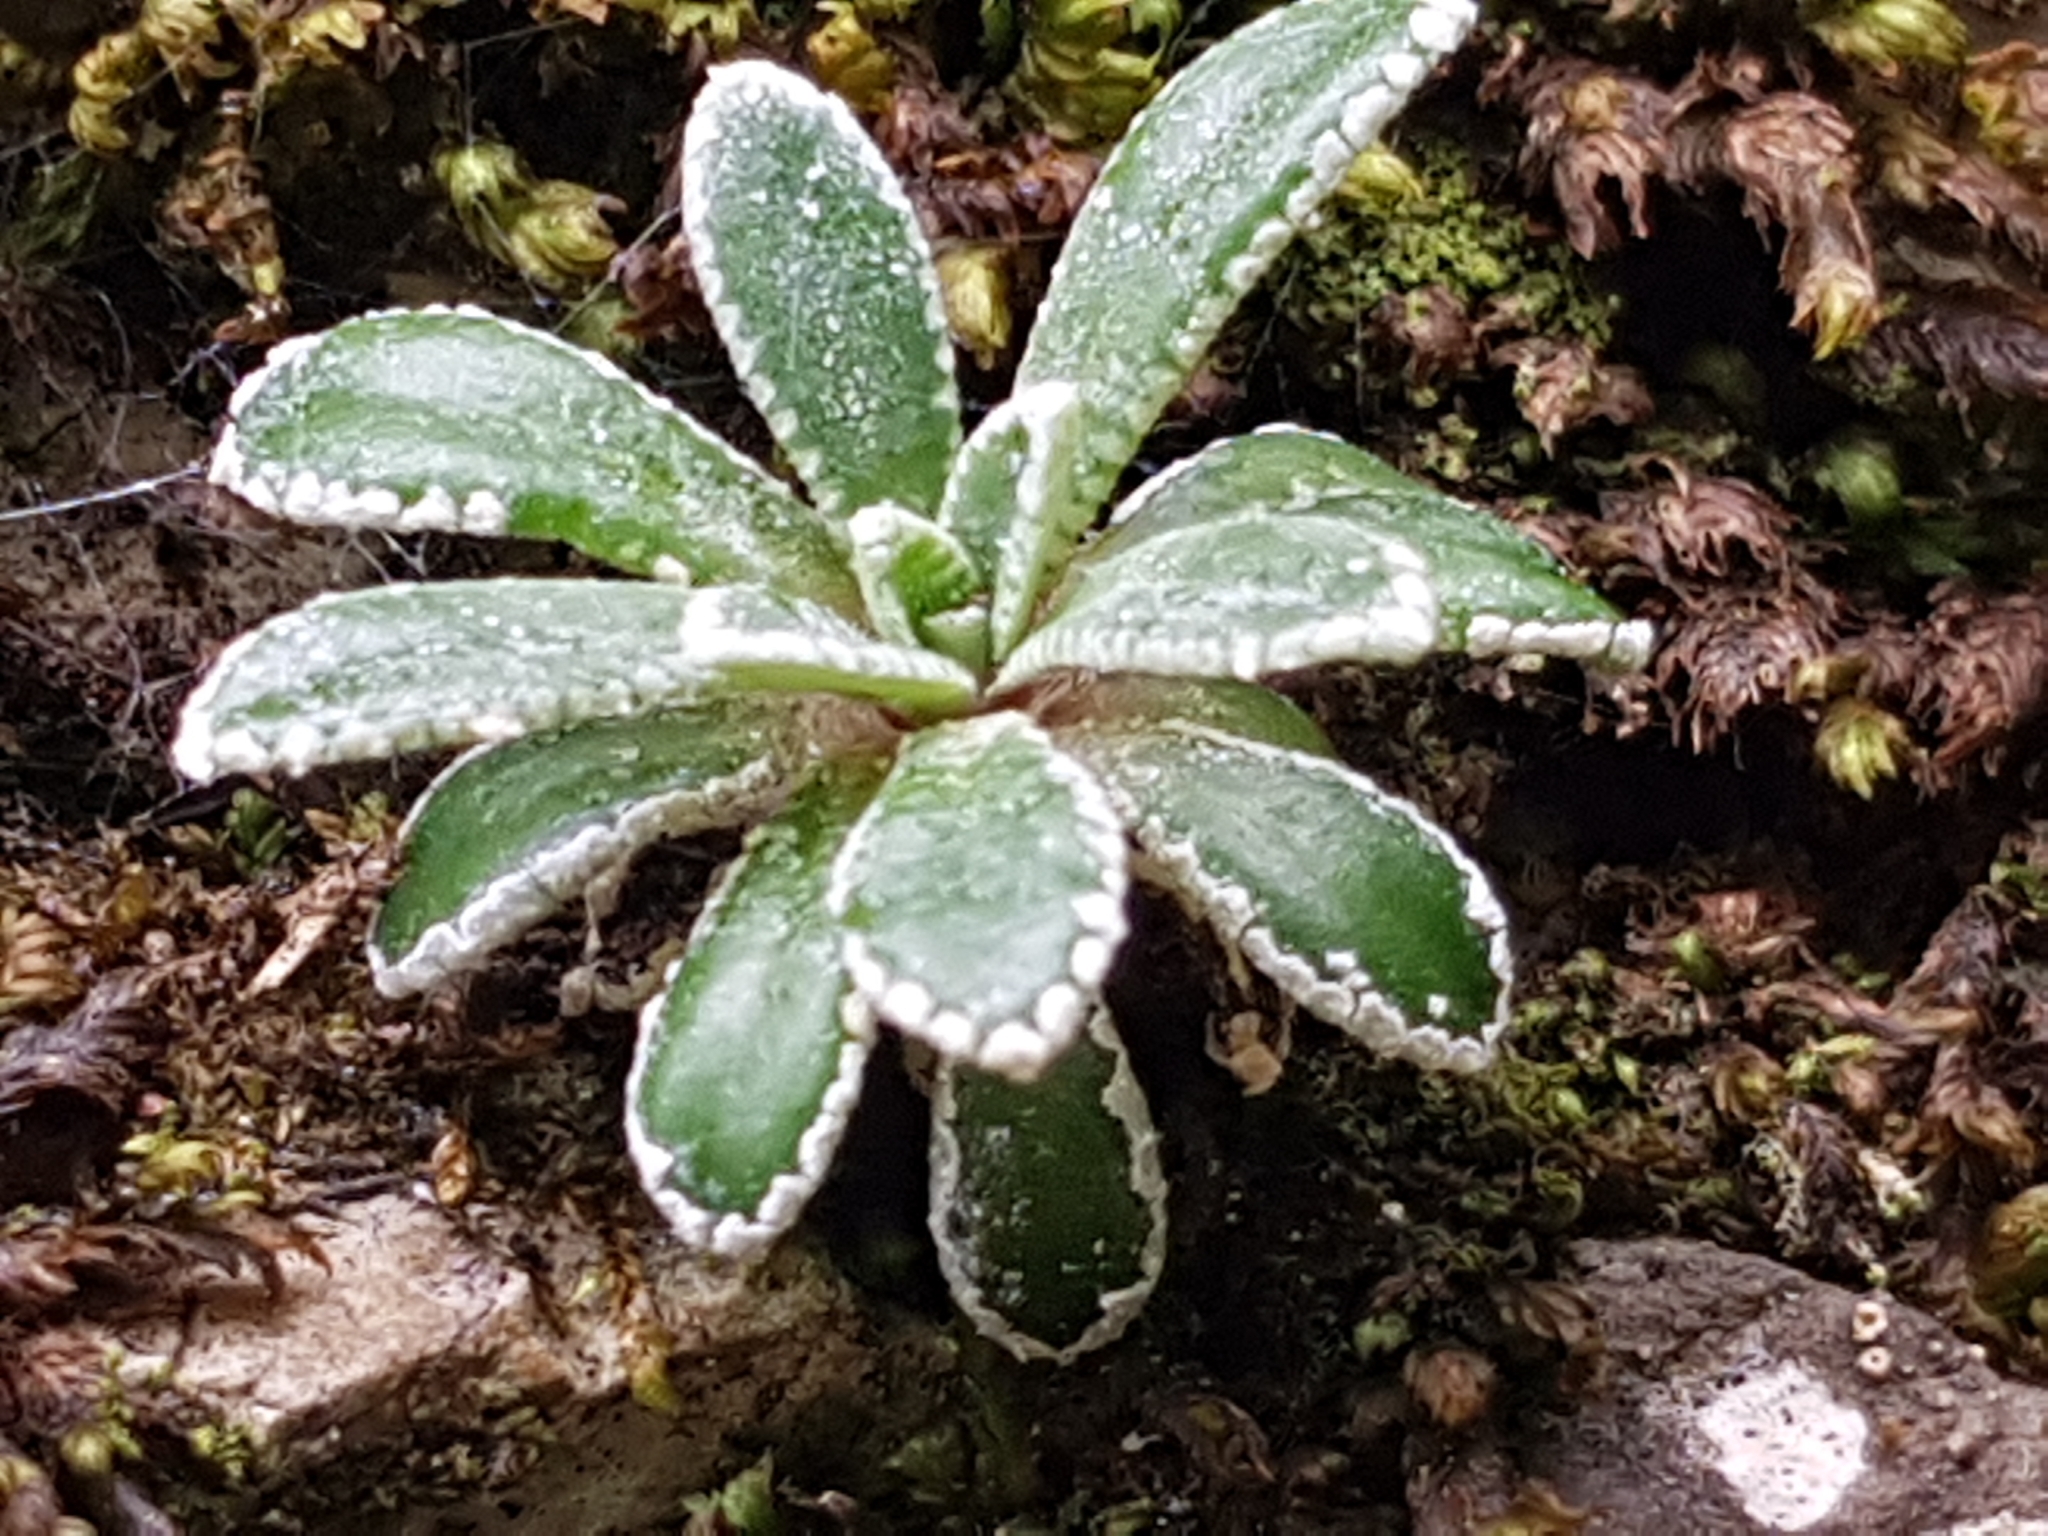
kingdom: Plantae
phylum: Tracheophyta
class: Magnoliopsida
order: Saxifragales
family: Saxifragaceae
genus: Saxifraga
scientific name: Saxifraga crustata
